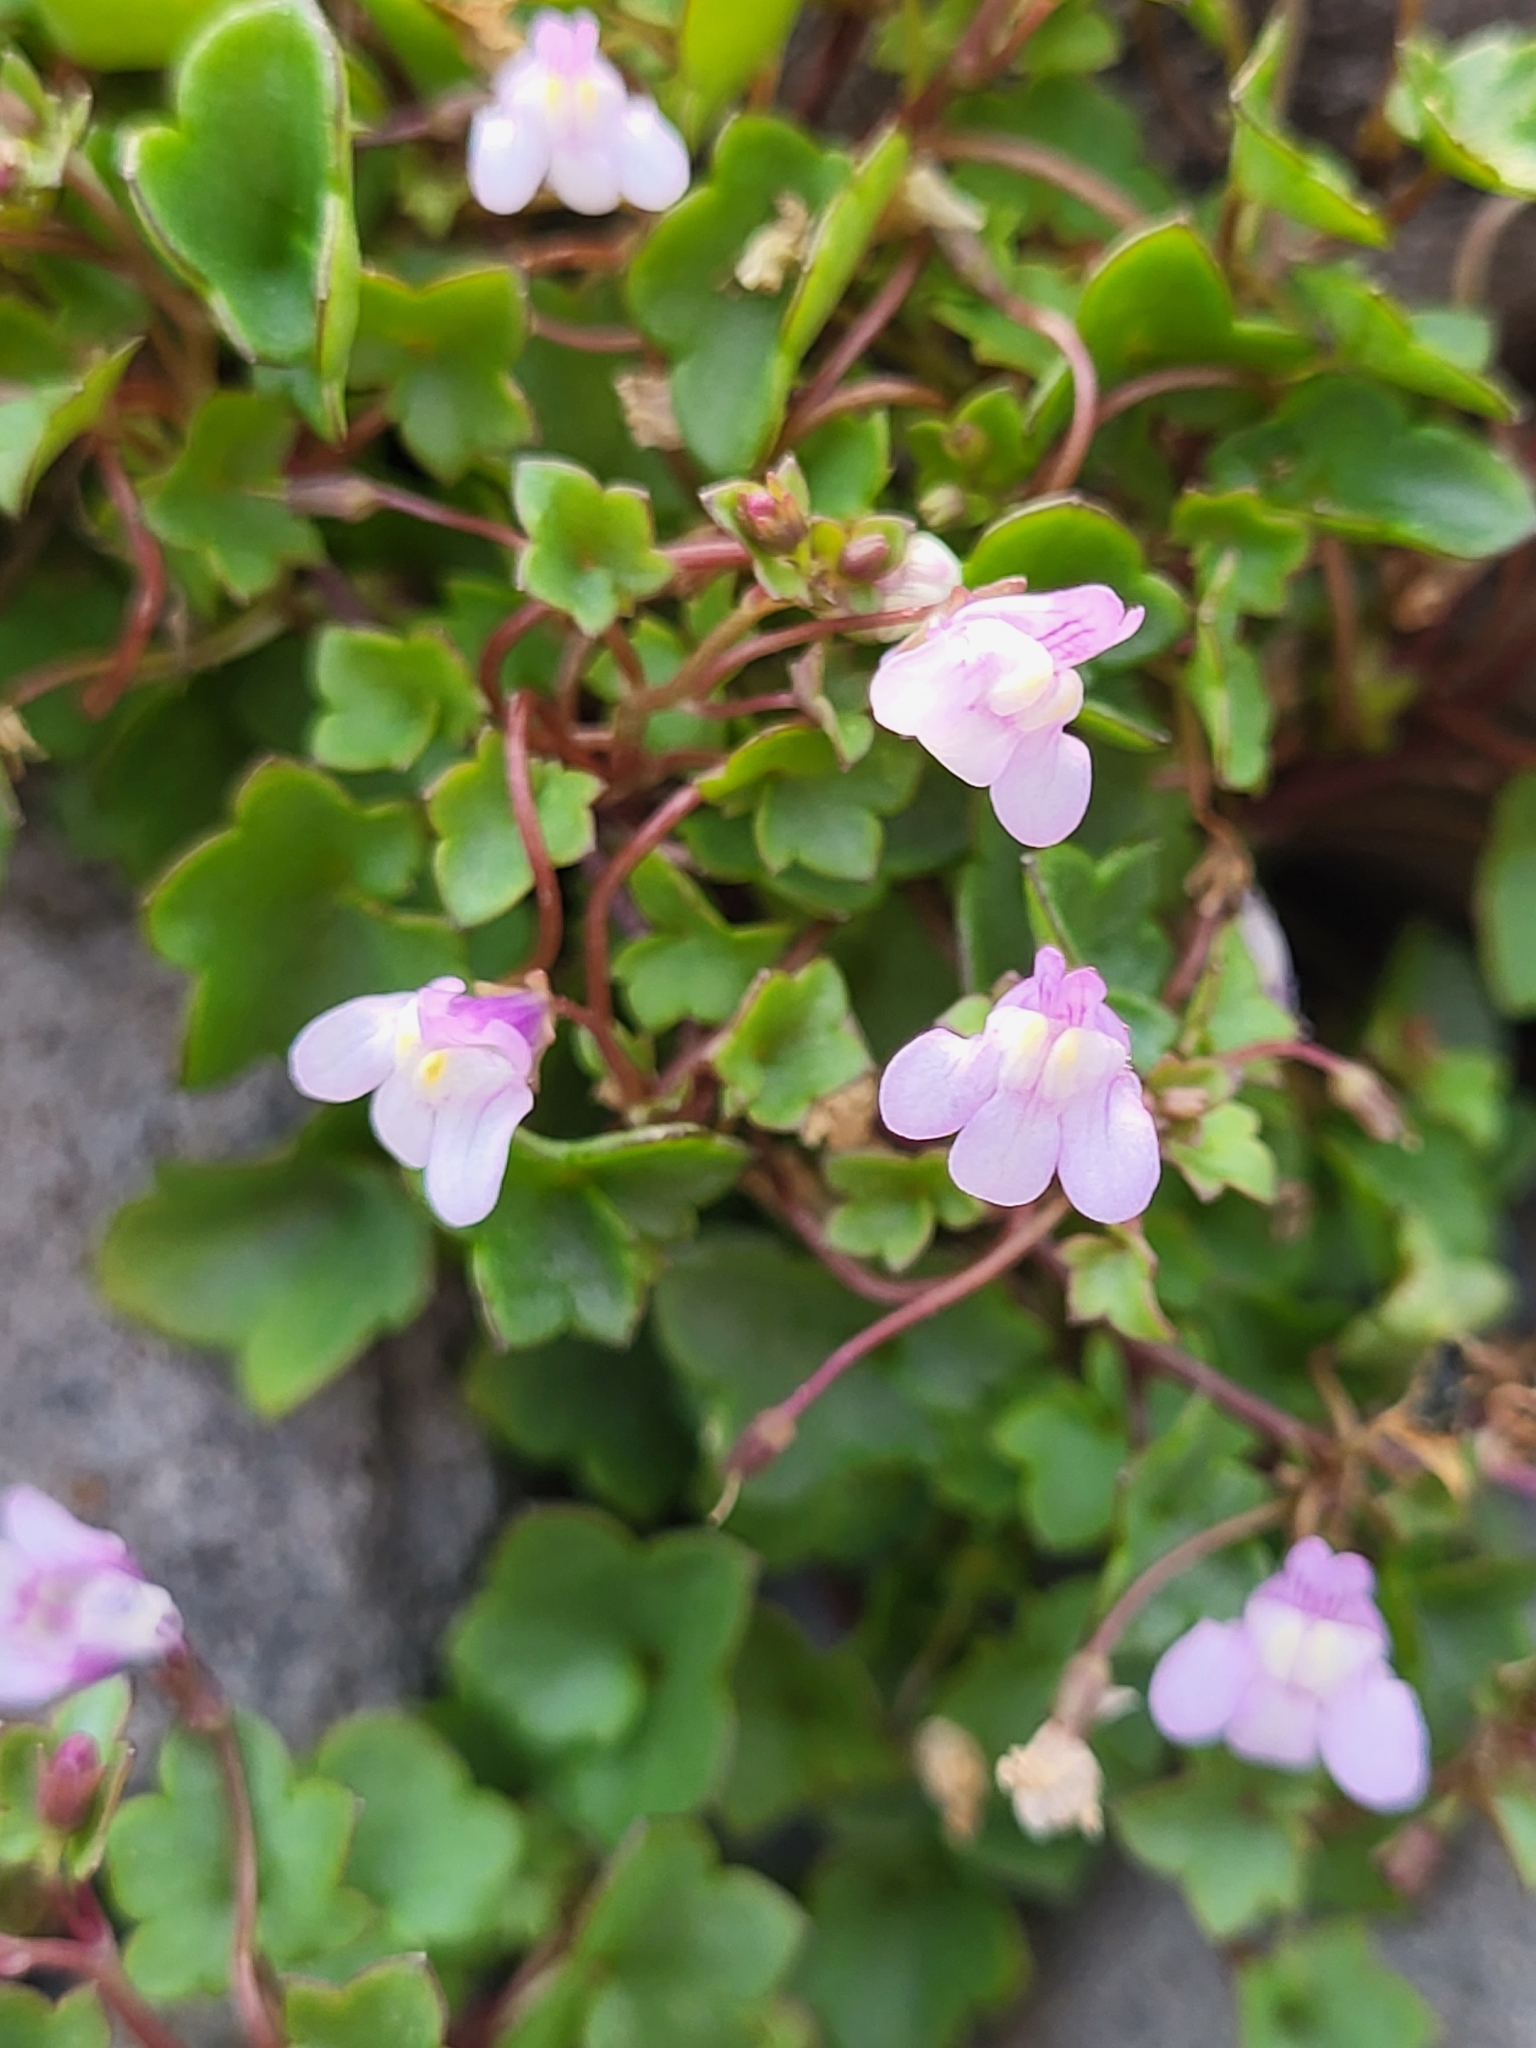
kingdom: Plantae
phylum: Tracheophyta
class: Magnoliopsida
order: Lamiales
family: Plantaginaceae
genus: Cymbalaria
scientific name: Cymbalaria muralis
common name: Ivy-leaved toadflax
